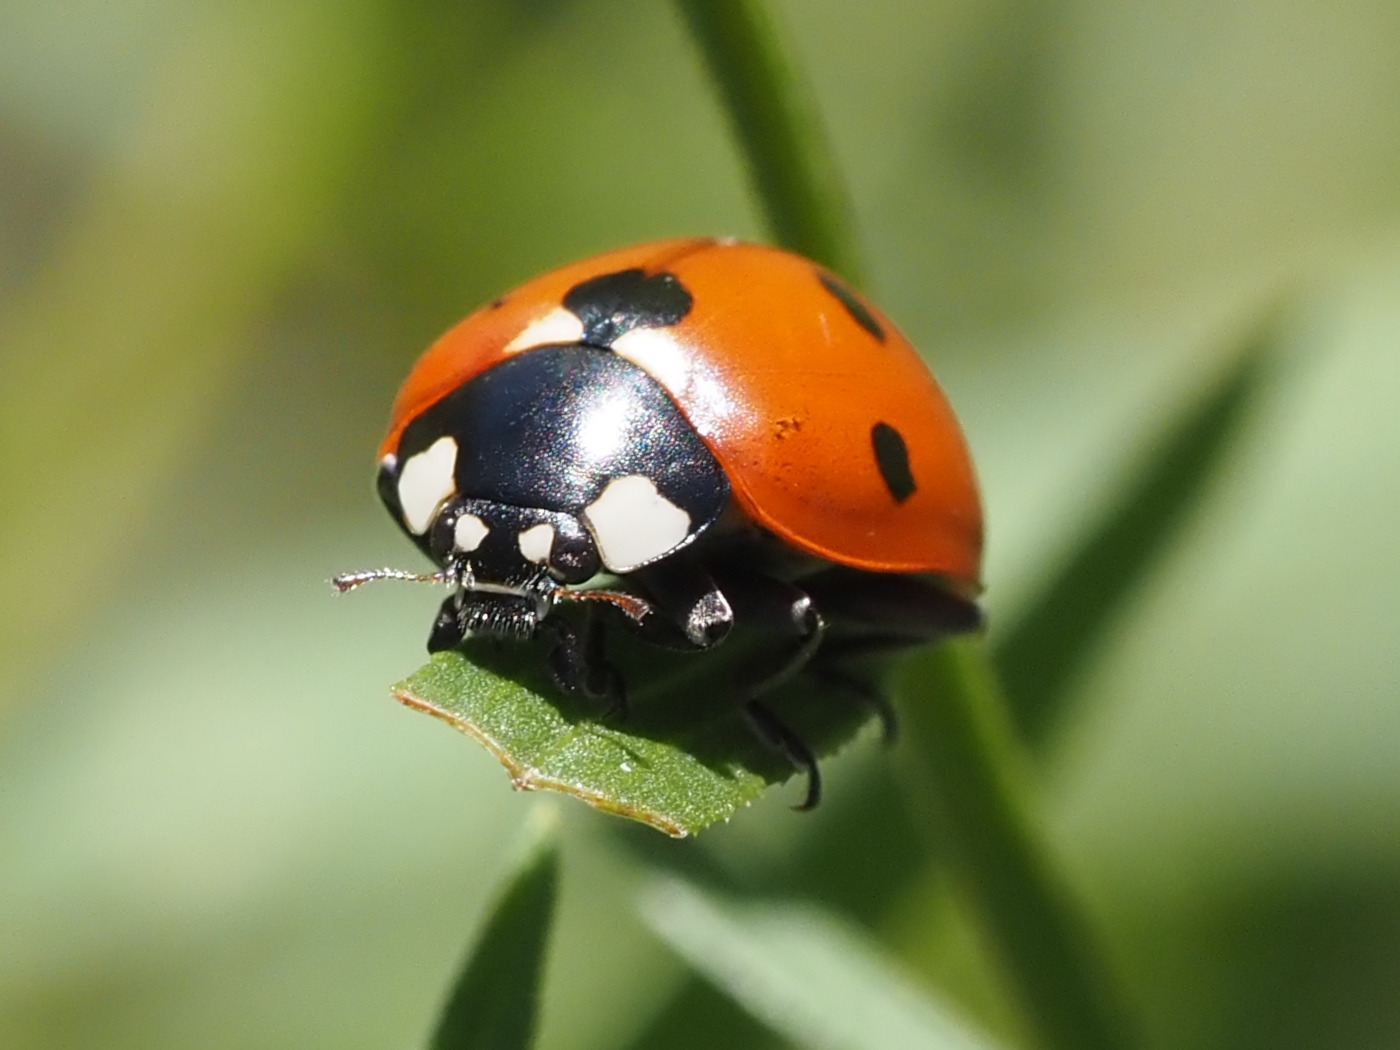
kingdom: Animalia
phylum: Arthropoda
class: Insecta
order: Coleoptera
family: Coccinellidae
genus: Coccinella
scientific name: Coccinella septempunctata
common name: Sevenspotted lady beetle
